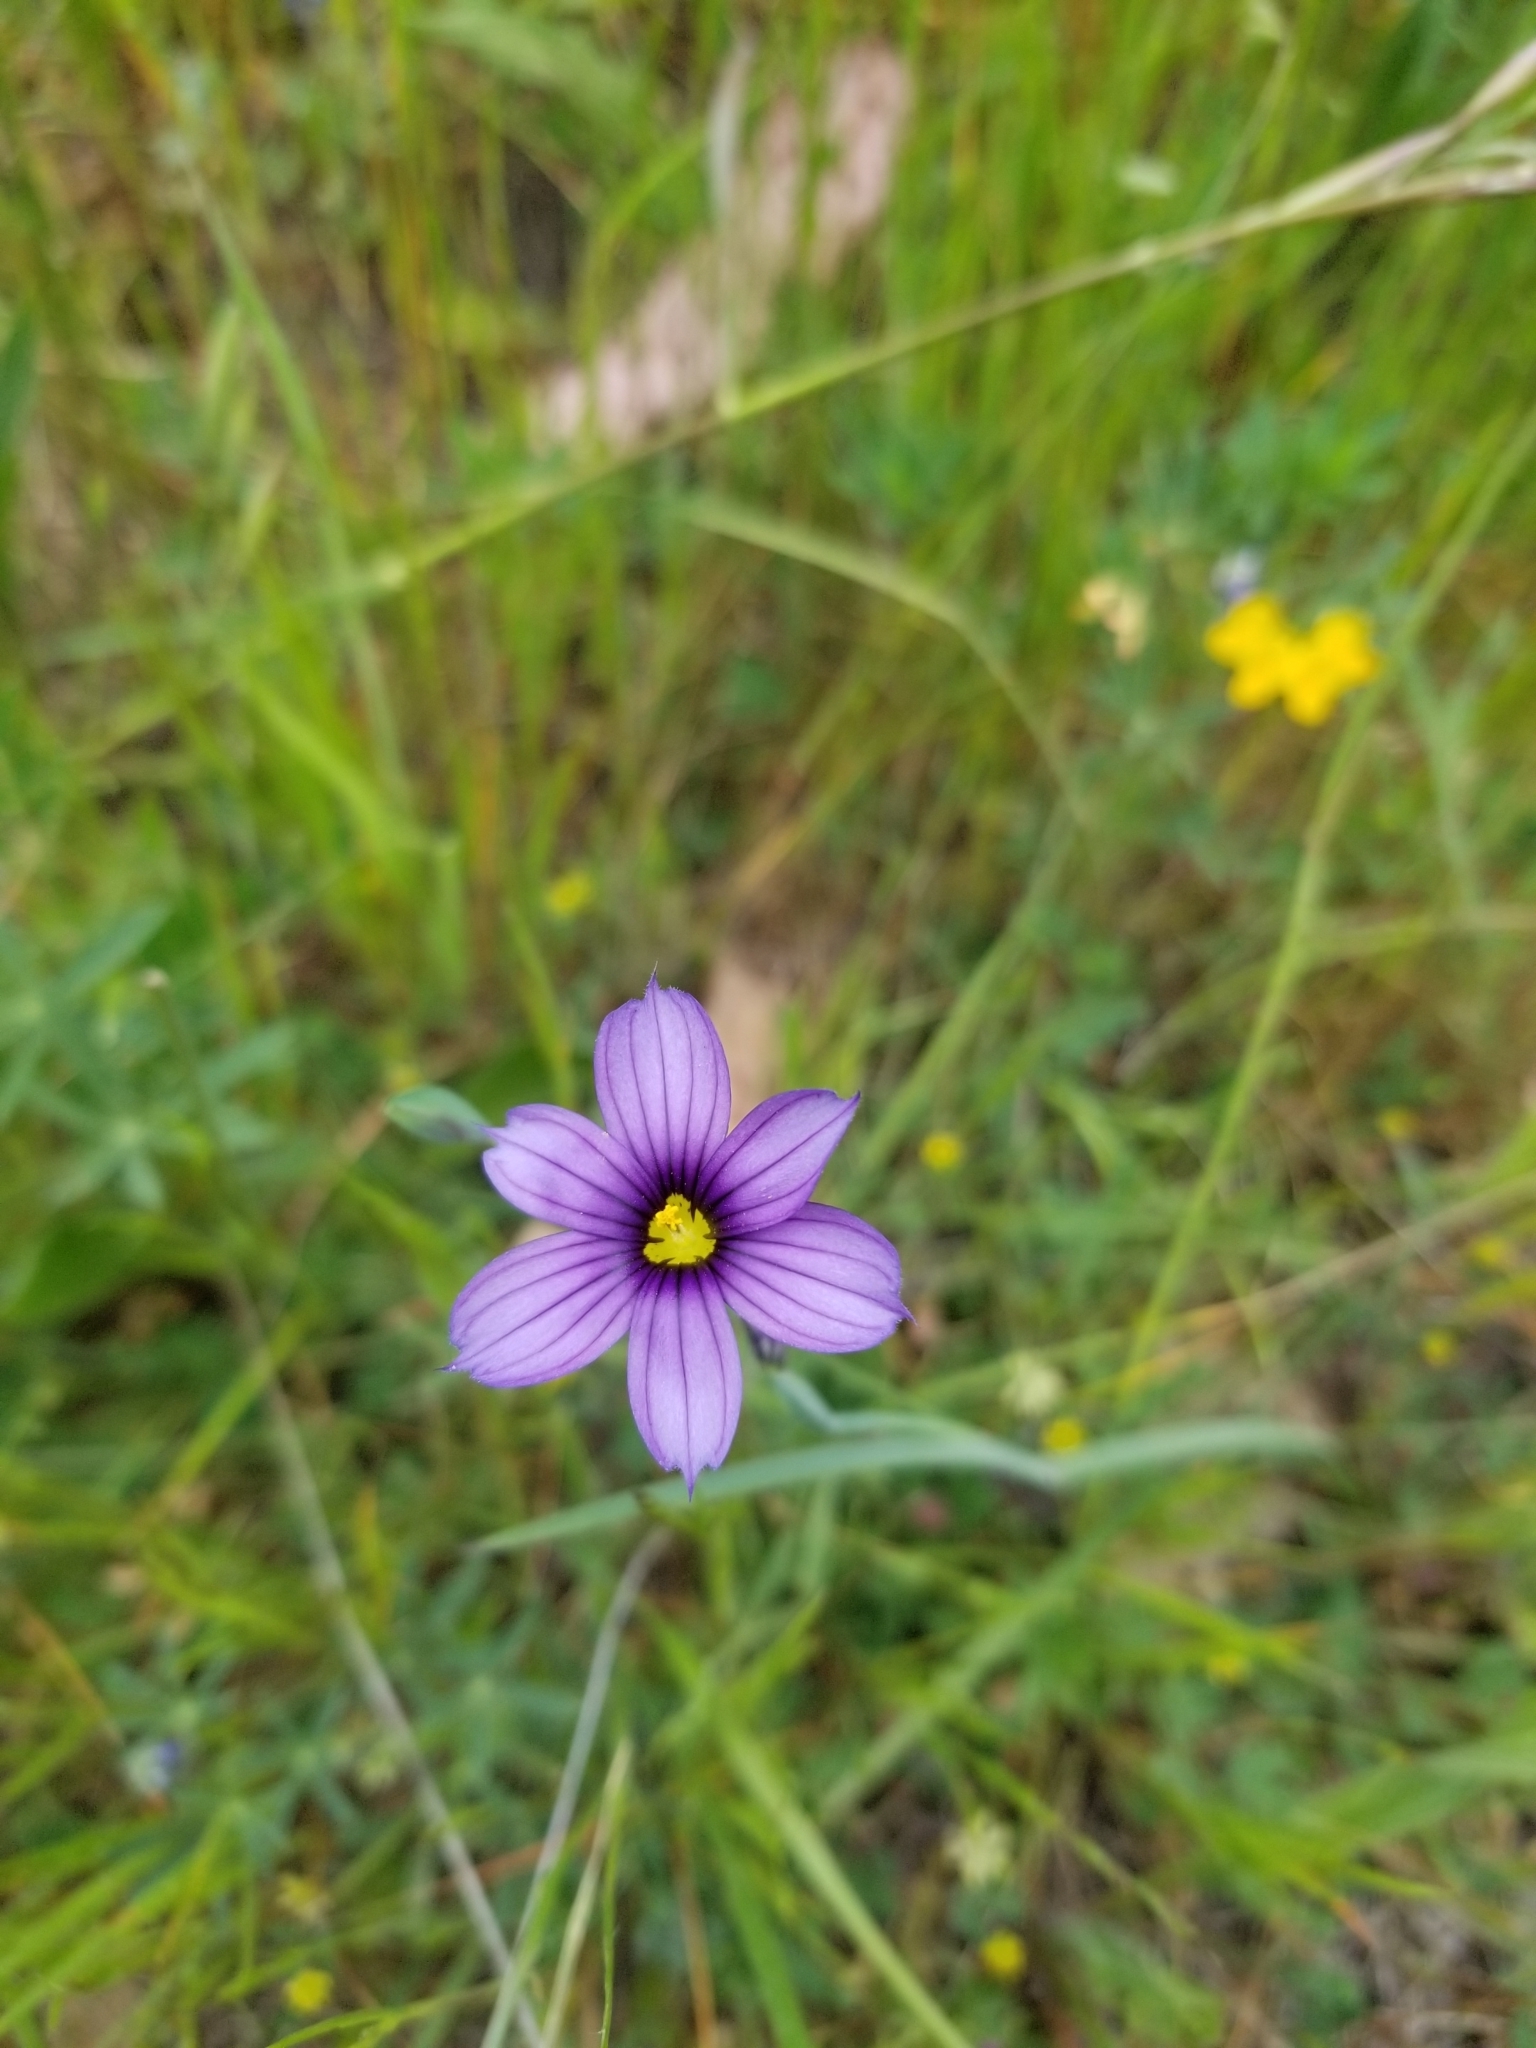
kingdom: Plantae
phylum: Tracheophyta
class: Liliopsida
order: Asparagales
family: Iridaceae
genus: Sisyrinchium
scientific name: Sisyrinchium bellum
